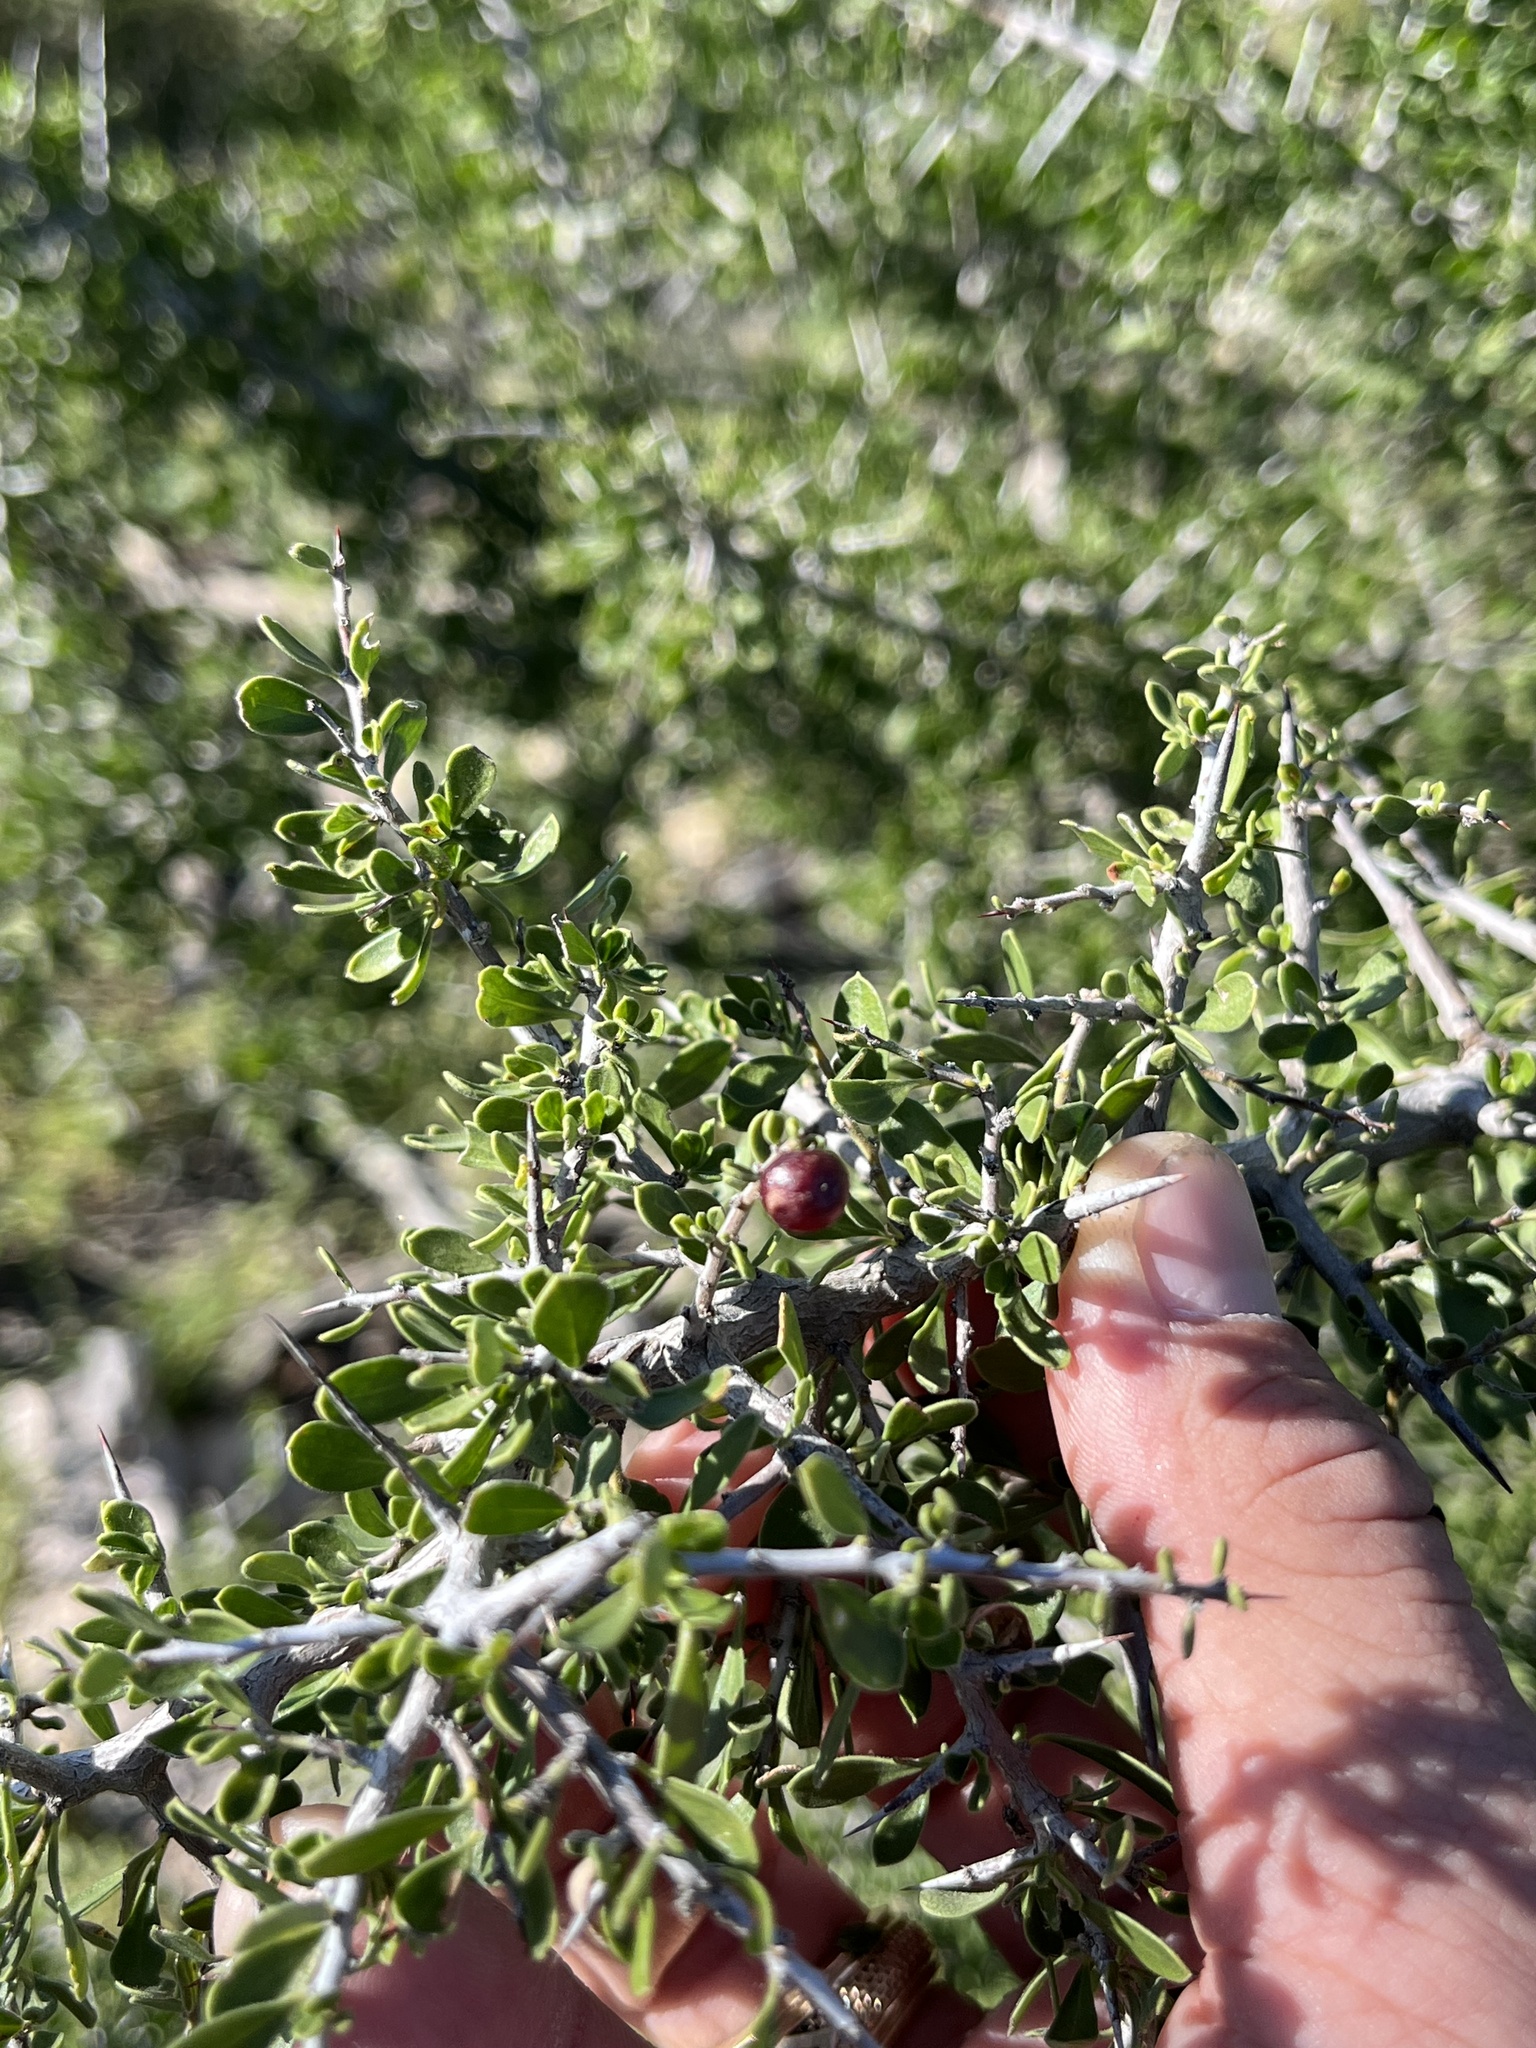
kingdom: Plantae
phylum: Tracheophyta
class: Magnoliopsida
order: Rosales
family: Rhamnaceae
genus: Condalia
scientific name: Condalia viridis
